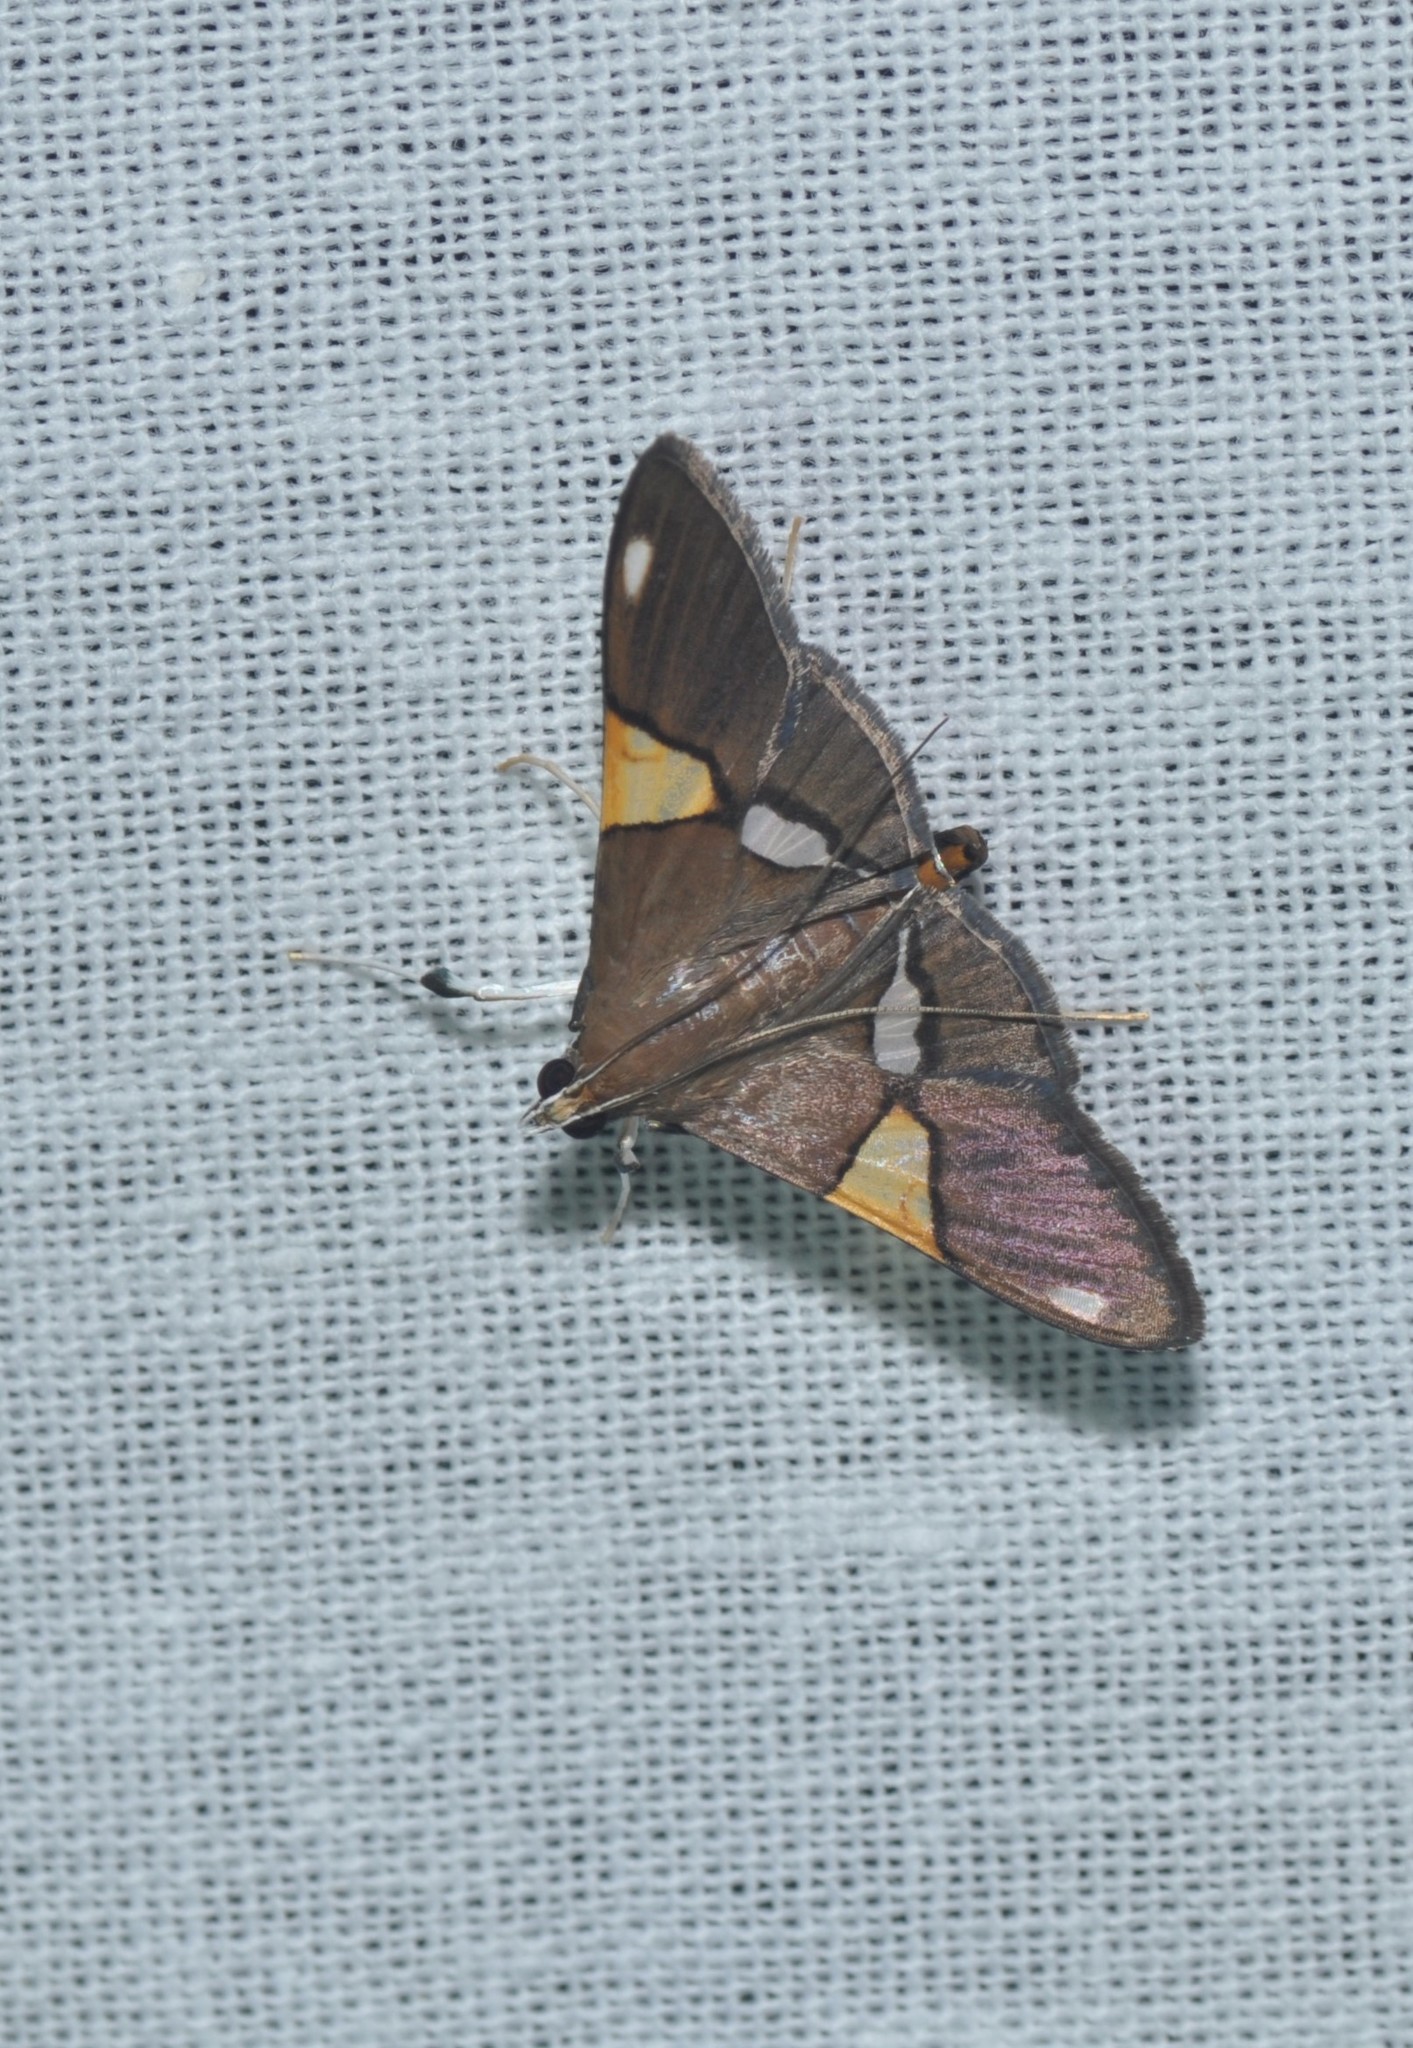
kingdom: Animalia
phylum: Arthropoda
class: Insecta
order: Lepidoptera
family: Crambidae
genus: Heterocnephes
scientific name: Heterocnephes scapulalis
